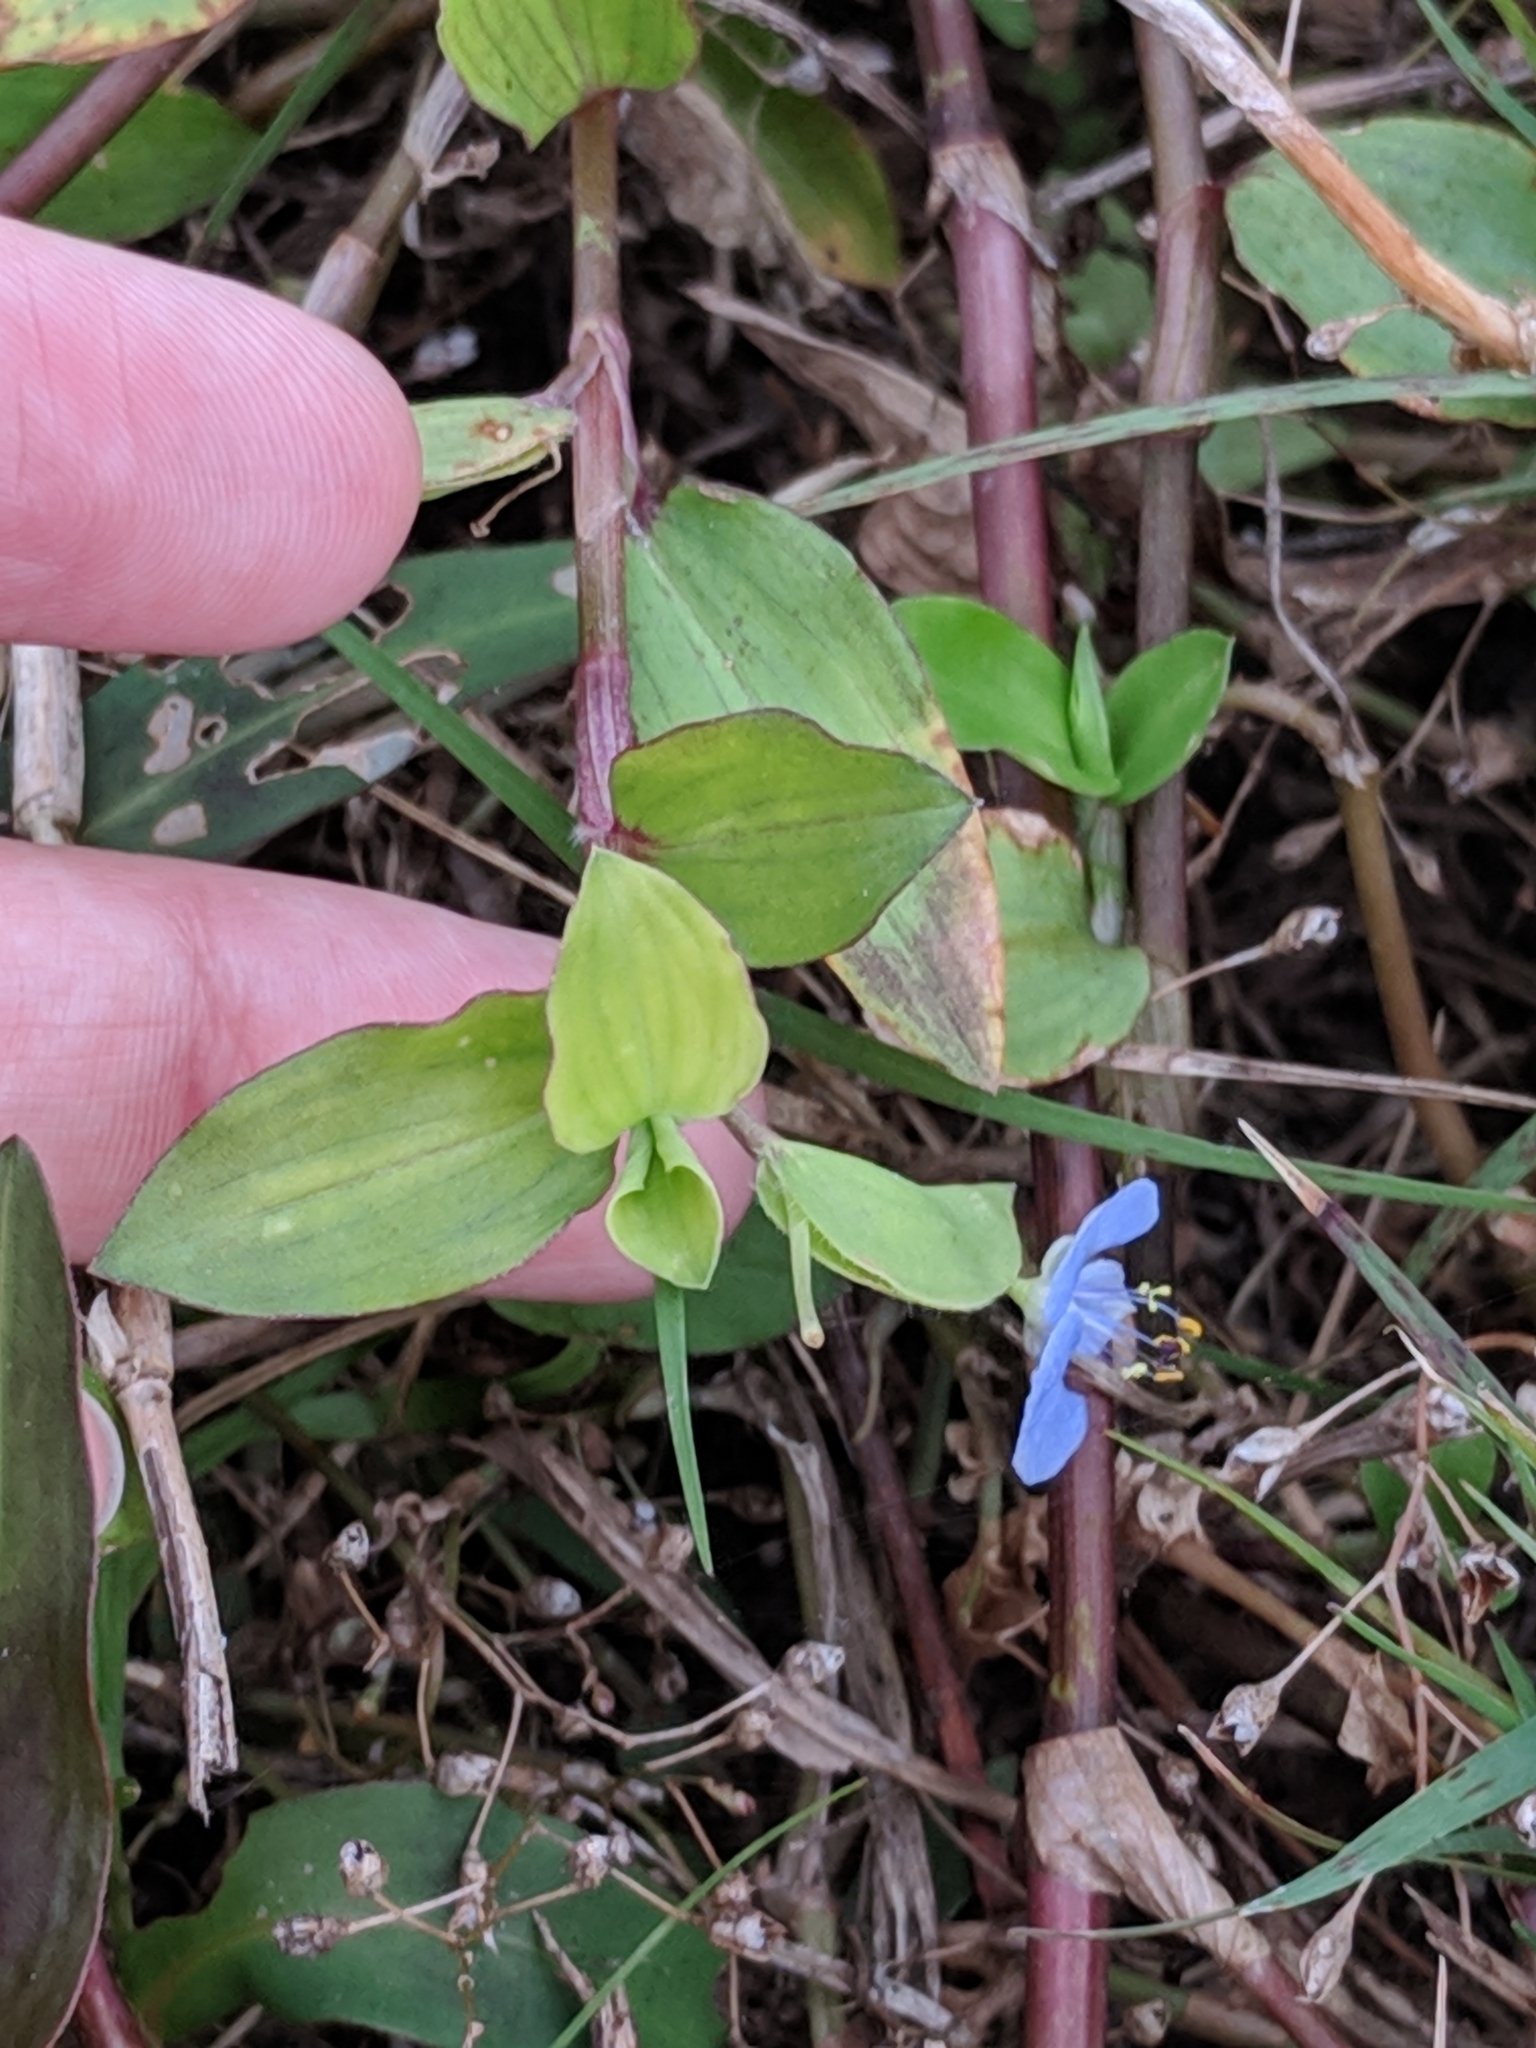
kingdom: Plantae
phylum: Tracheophyta
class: Liliopsida
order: Commelinales
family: Commelinaceae
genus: Commelina
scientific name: Commelina diffusa
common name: Climbing dayflower
